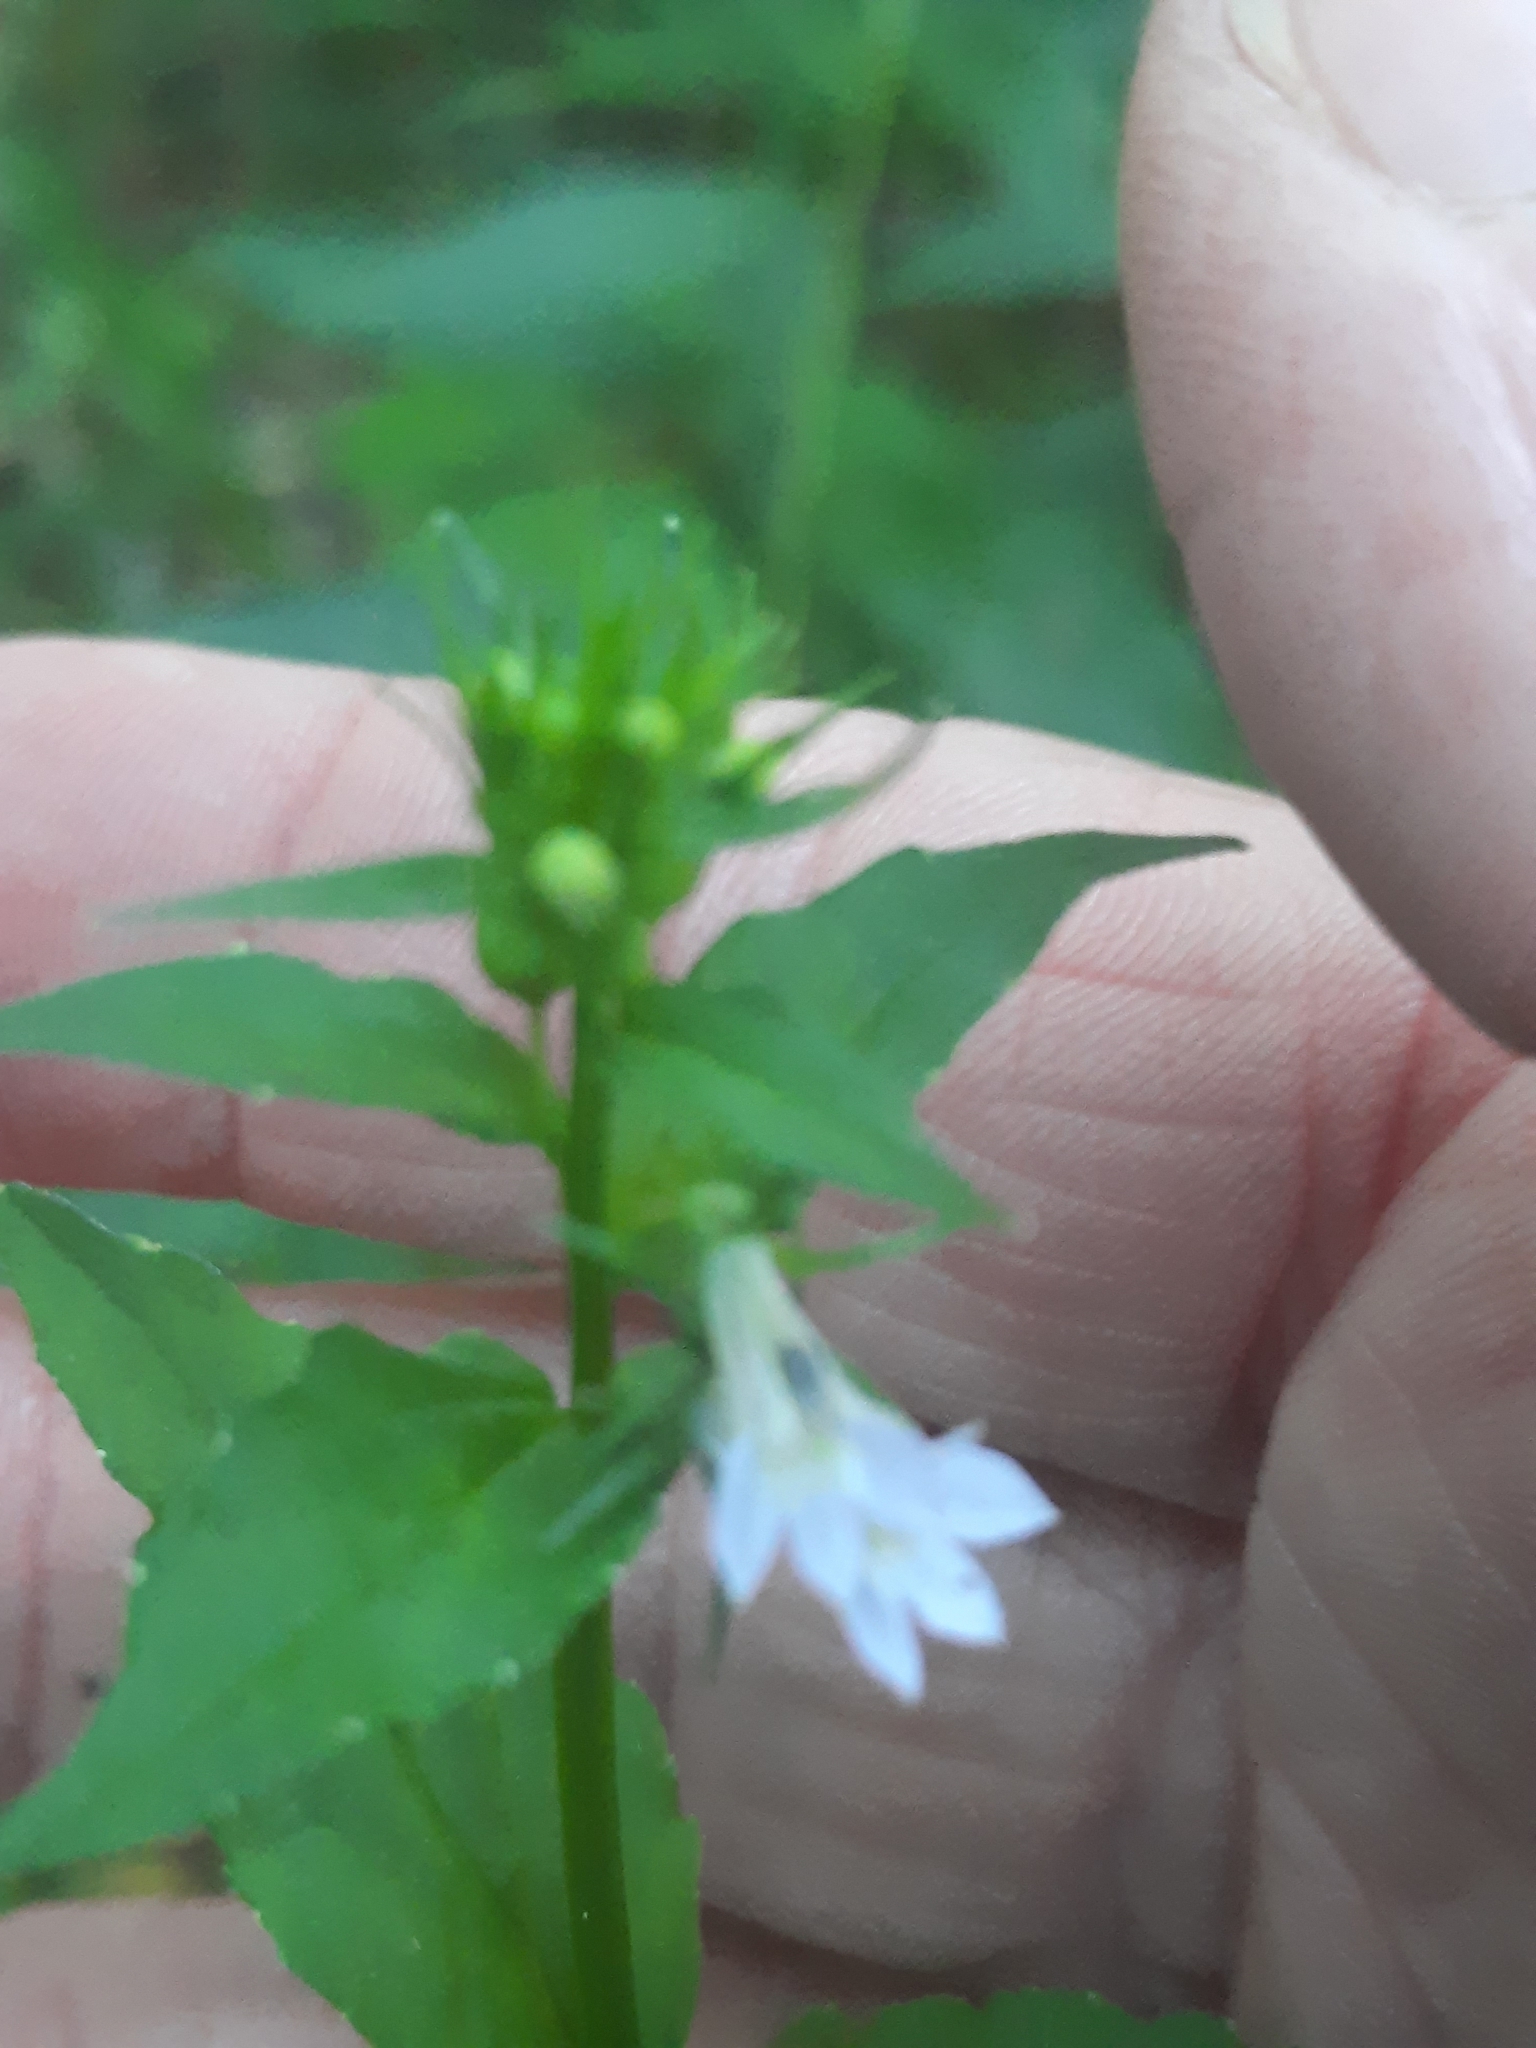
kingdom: Plantae
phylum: Tracheophyta
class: Magnoliopsida
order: Asterales
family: Campanulaceae
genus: Lobelia
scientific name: Lobelia inflata
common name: Indian tobacco
